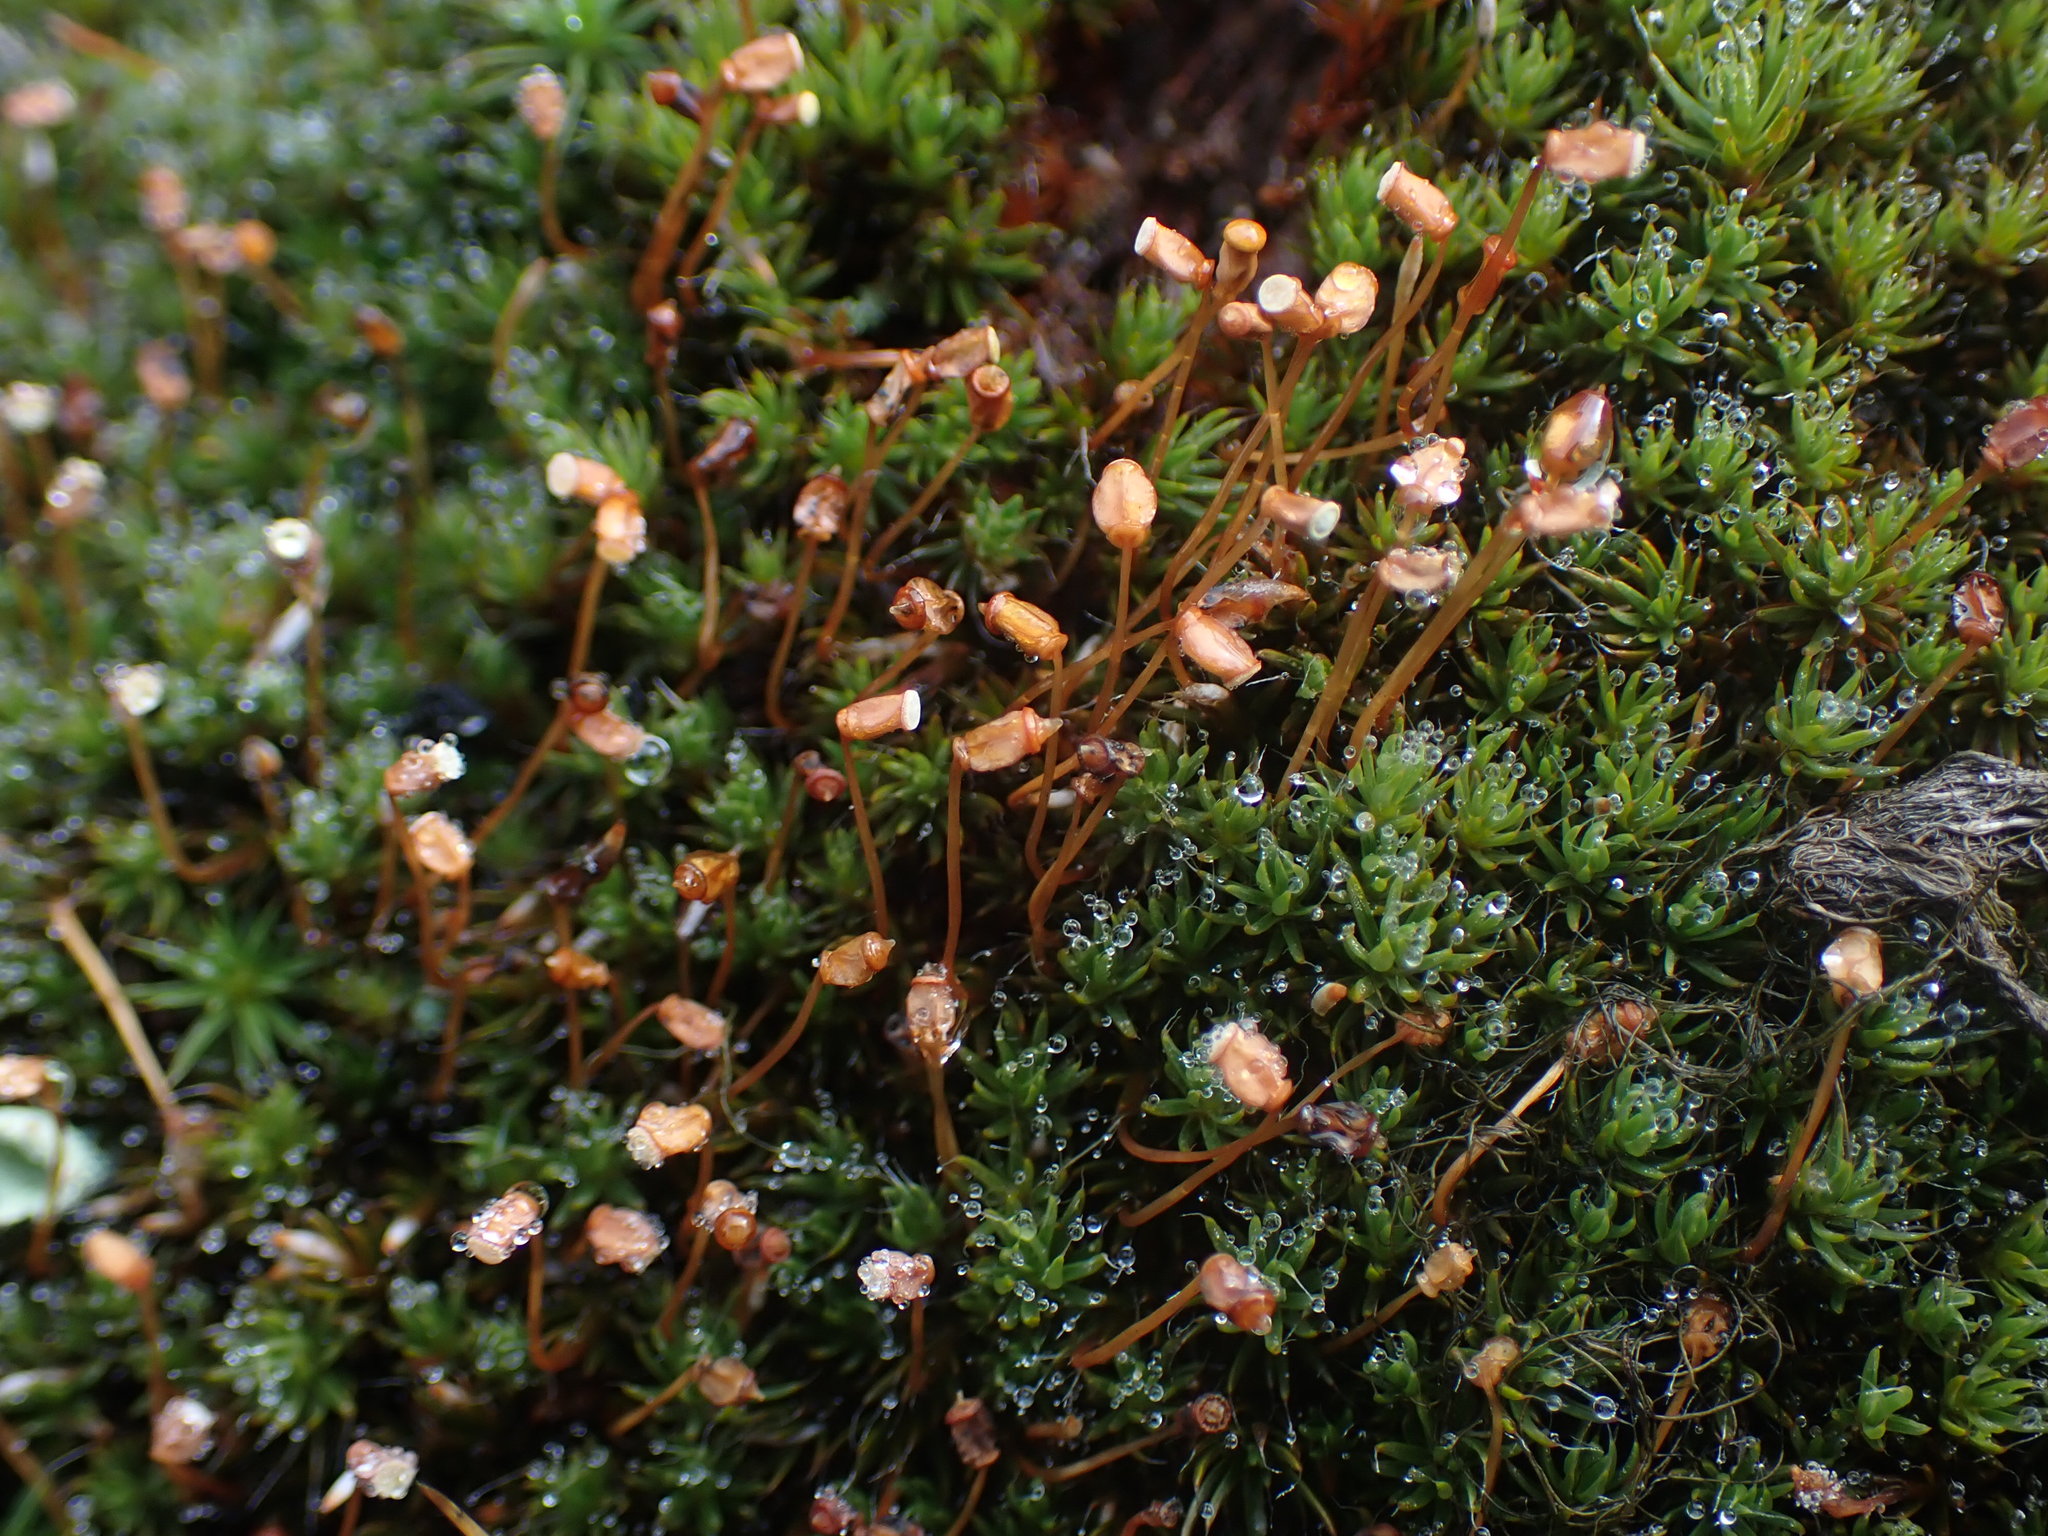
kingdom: Plantae
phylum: Bryophyta
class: Polytrichopsida
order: Polytrichales
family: Polytrichaceae
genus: Polytrichum
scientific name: Polytrichum piliferum
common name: Bristly haircap
